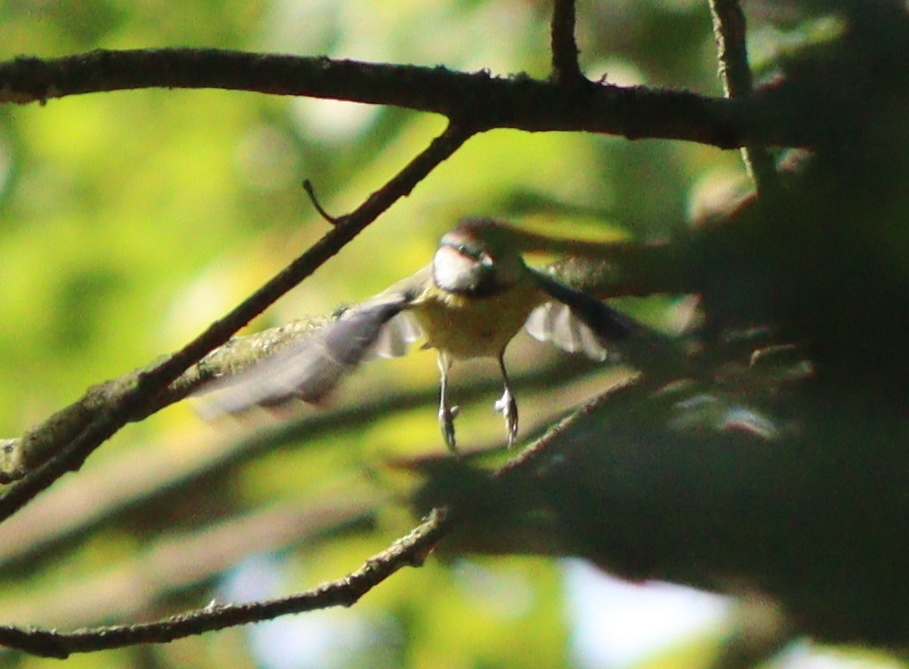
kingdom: Animalia
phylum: Chordata
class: Aves
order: Passeriformes
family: Paridae
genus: Cyanistes
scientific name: Cyanistes caeruleus
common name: Eurasian blue tit
